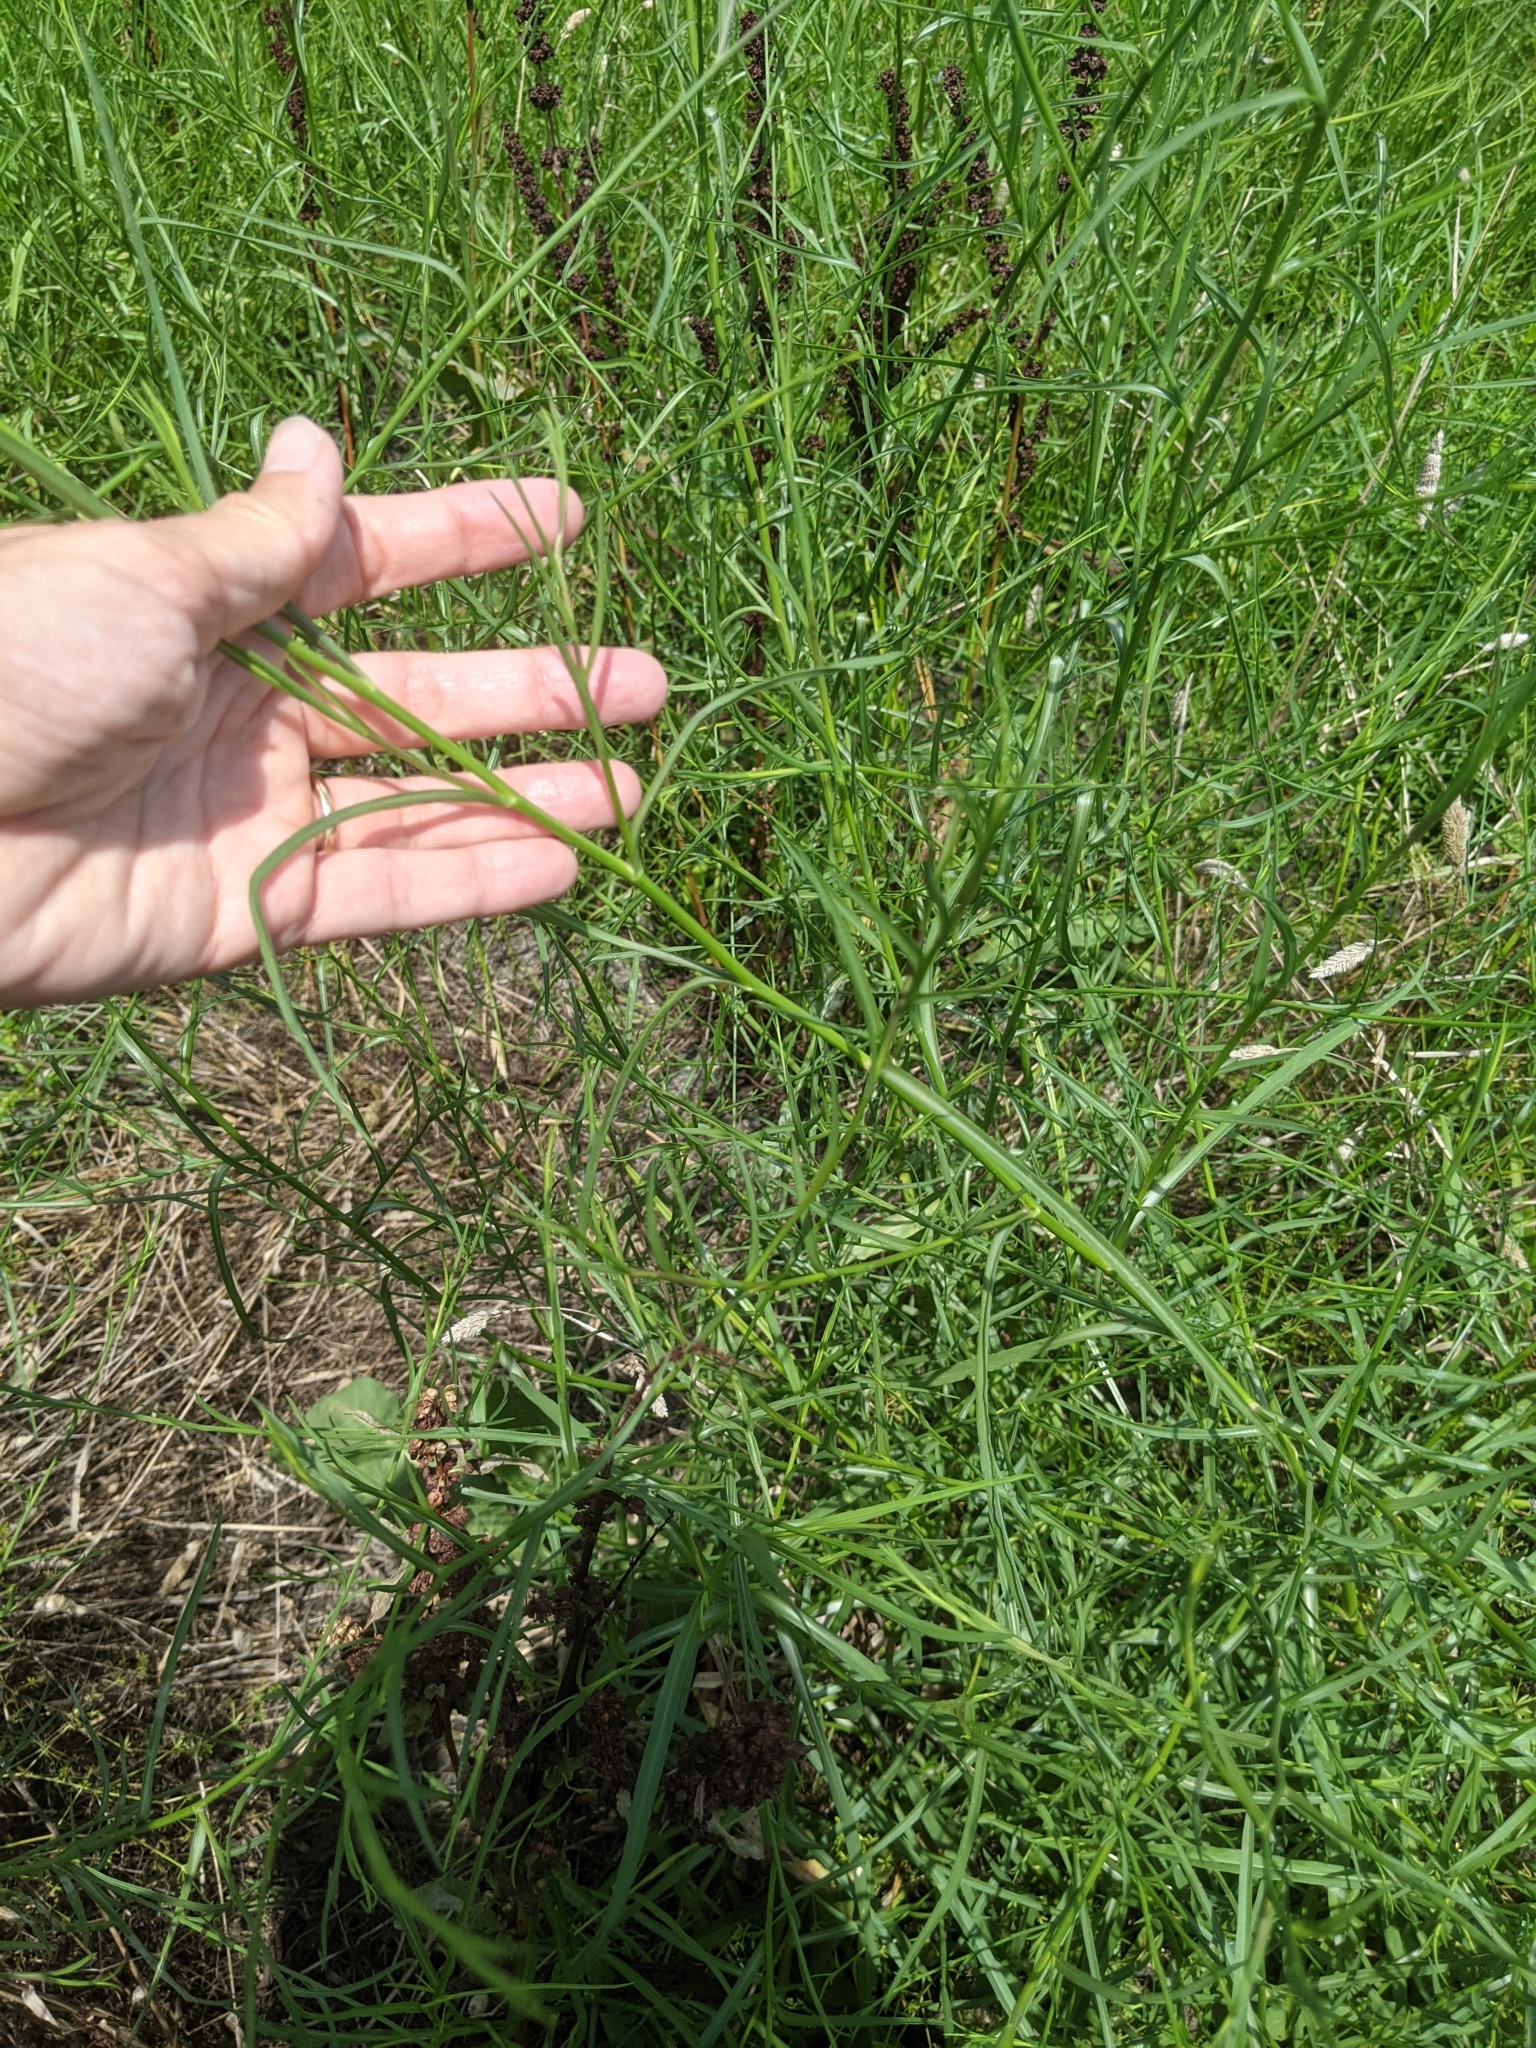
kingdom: Plantae
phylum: Tracheophyta
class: Magnoliopsida
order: Asterales
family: Asteraceae
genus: Symphyotrichum
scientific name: Symphyotrichum divaricatum
